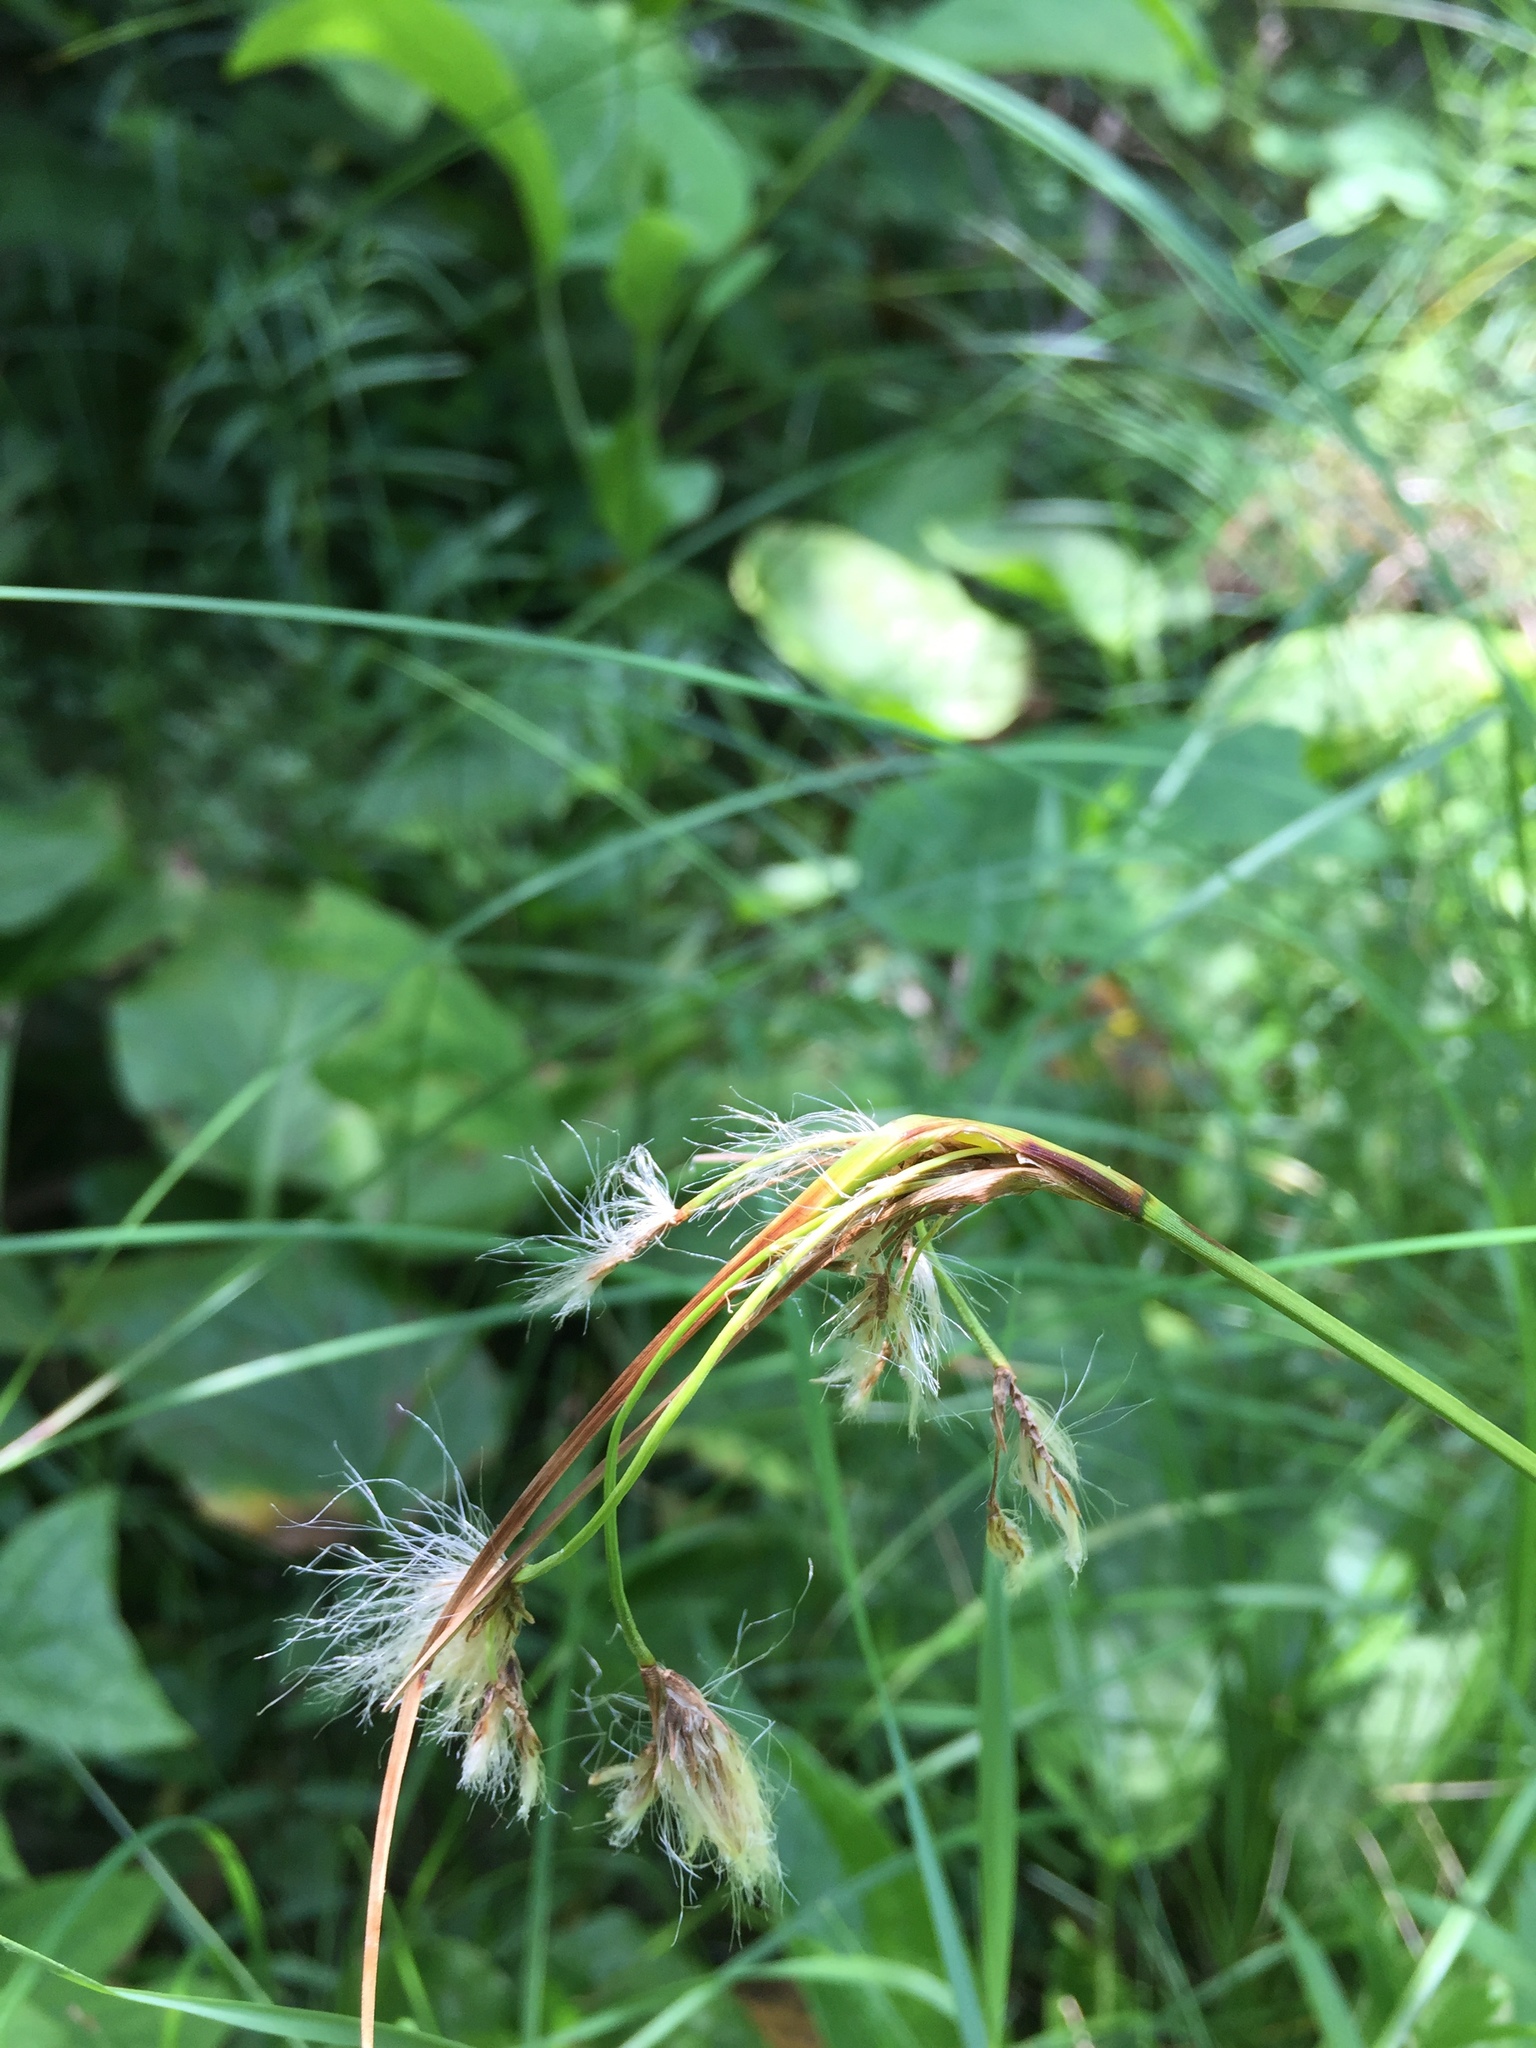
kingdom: Plantae
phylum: Tracheophyta
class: Liliopsida
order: Poales
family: Cyperaceae
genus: Eriophorum
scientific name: Eriophorum viridicarinatum
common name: Green-keeled cottongrass
